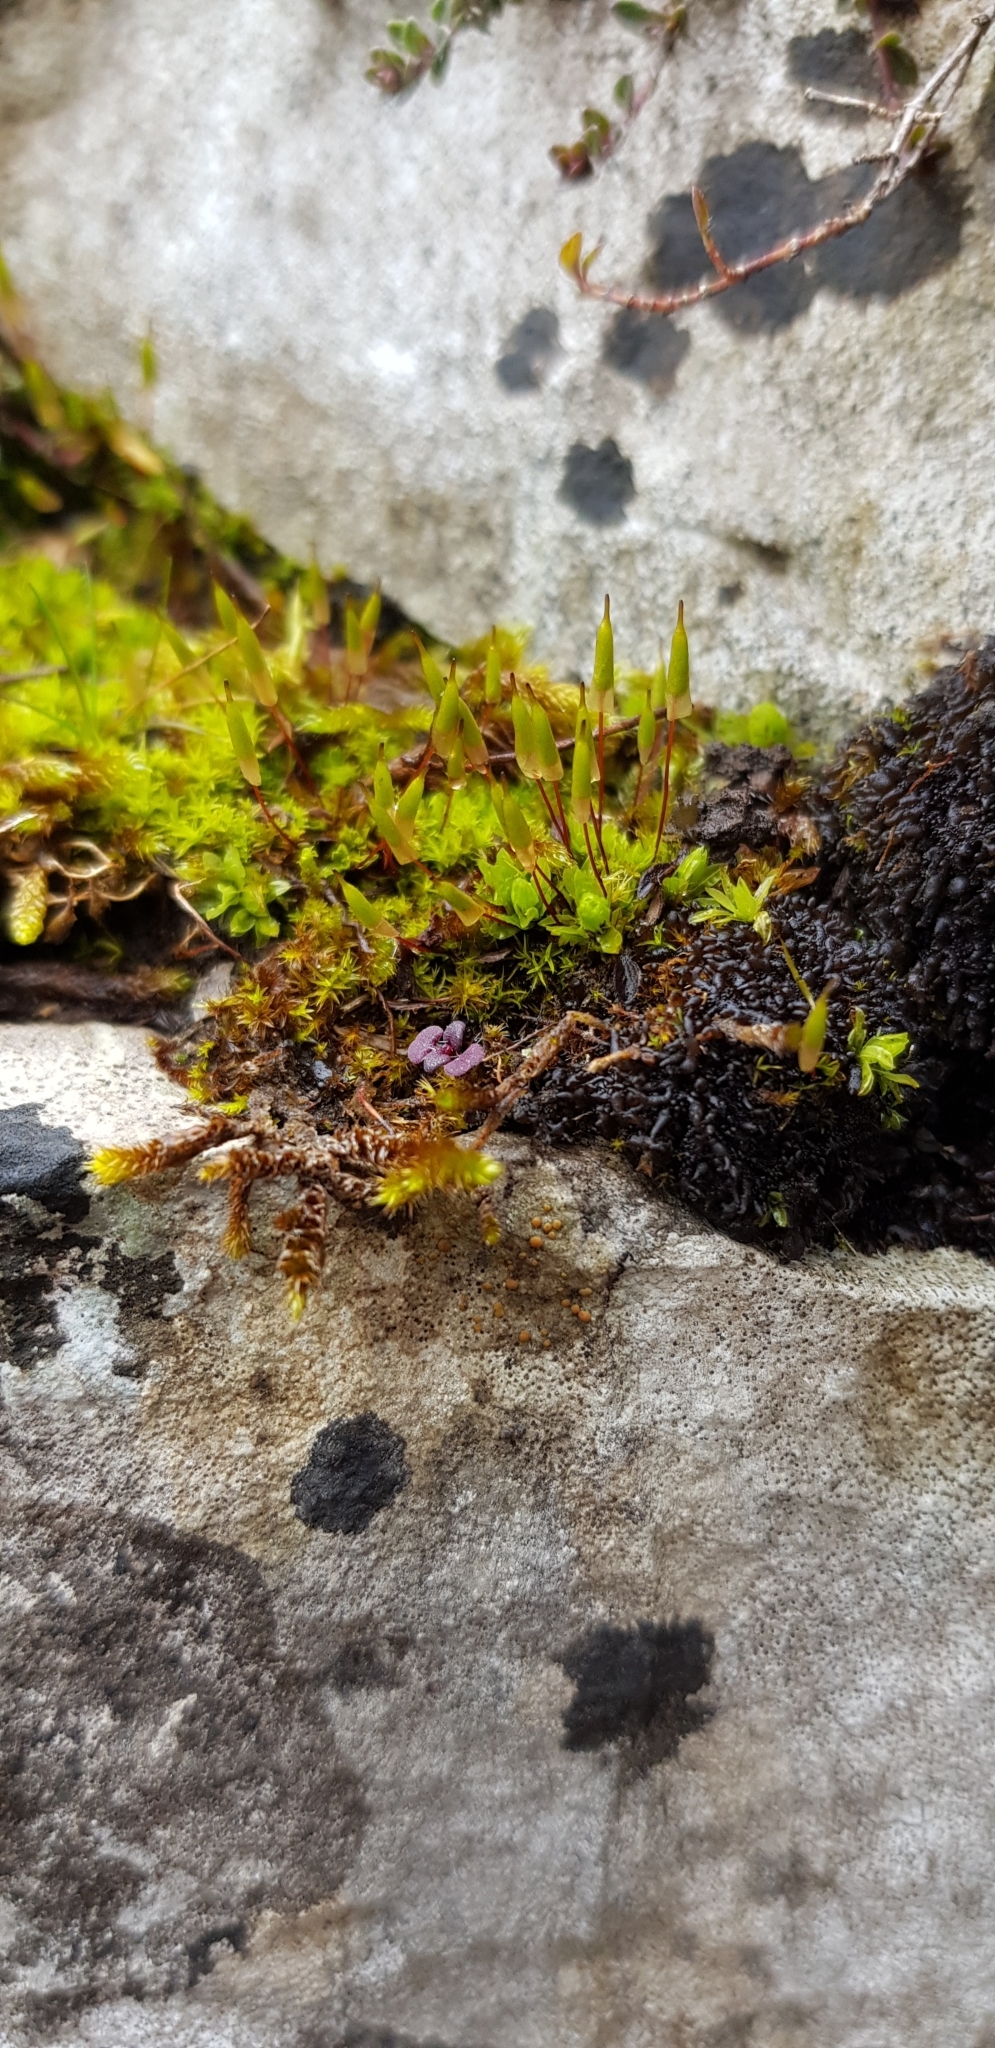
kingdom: Plantae
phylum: Bryophyta
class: Bryopsida
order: Encalyptales
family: Encalyptaceae
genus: Encalypta
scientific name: Encalypta vulgaris
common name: Common extinguisher-moss
